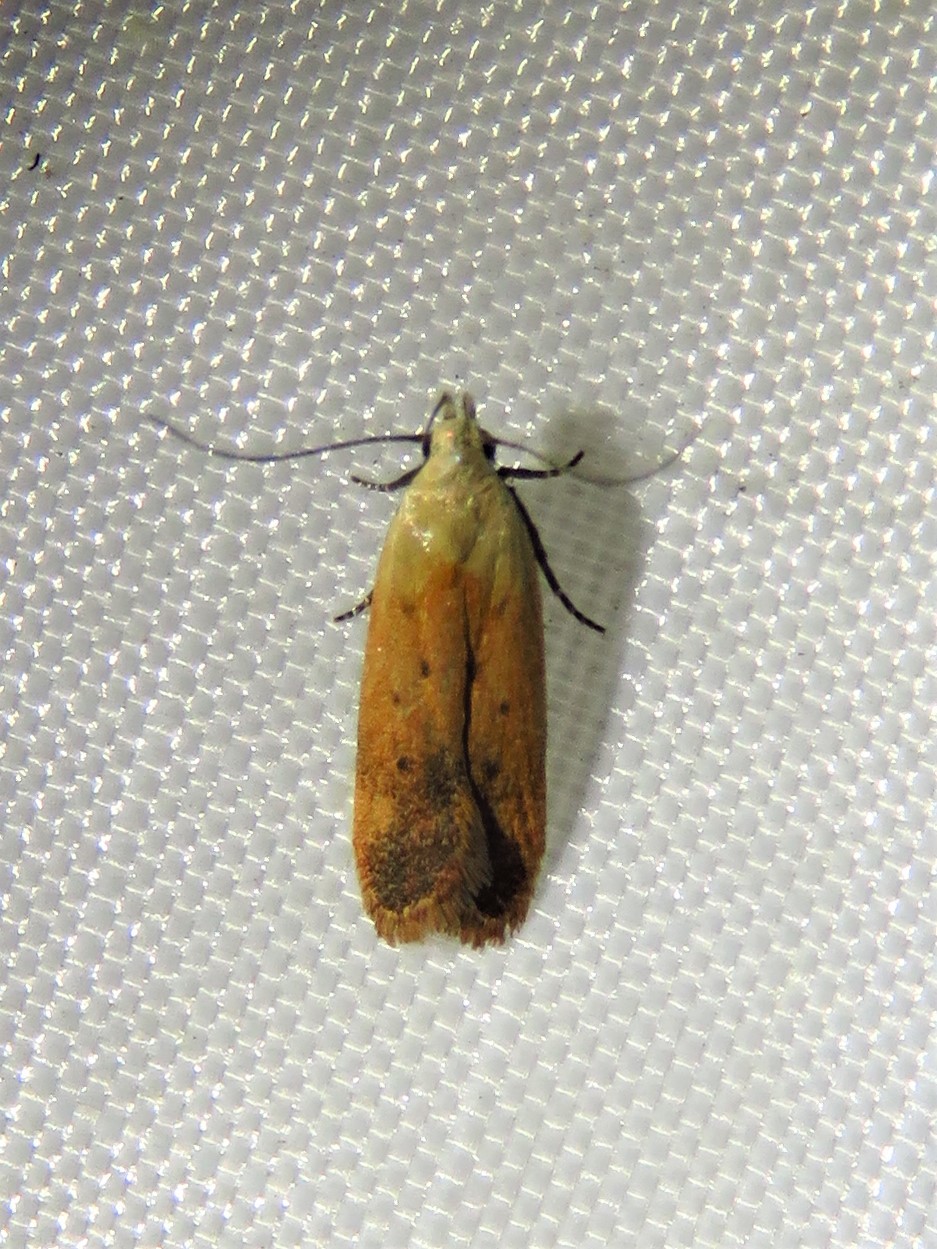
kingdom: Animalia
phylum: Arthropoda
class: Insecta
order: Lepidoptera
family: Gelechiidae
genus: Anacampsis
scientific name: Anacampsis fullonella
